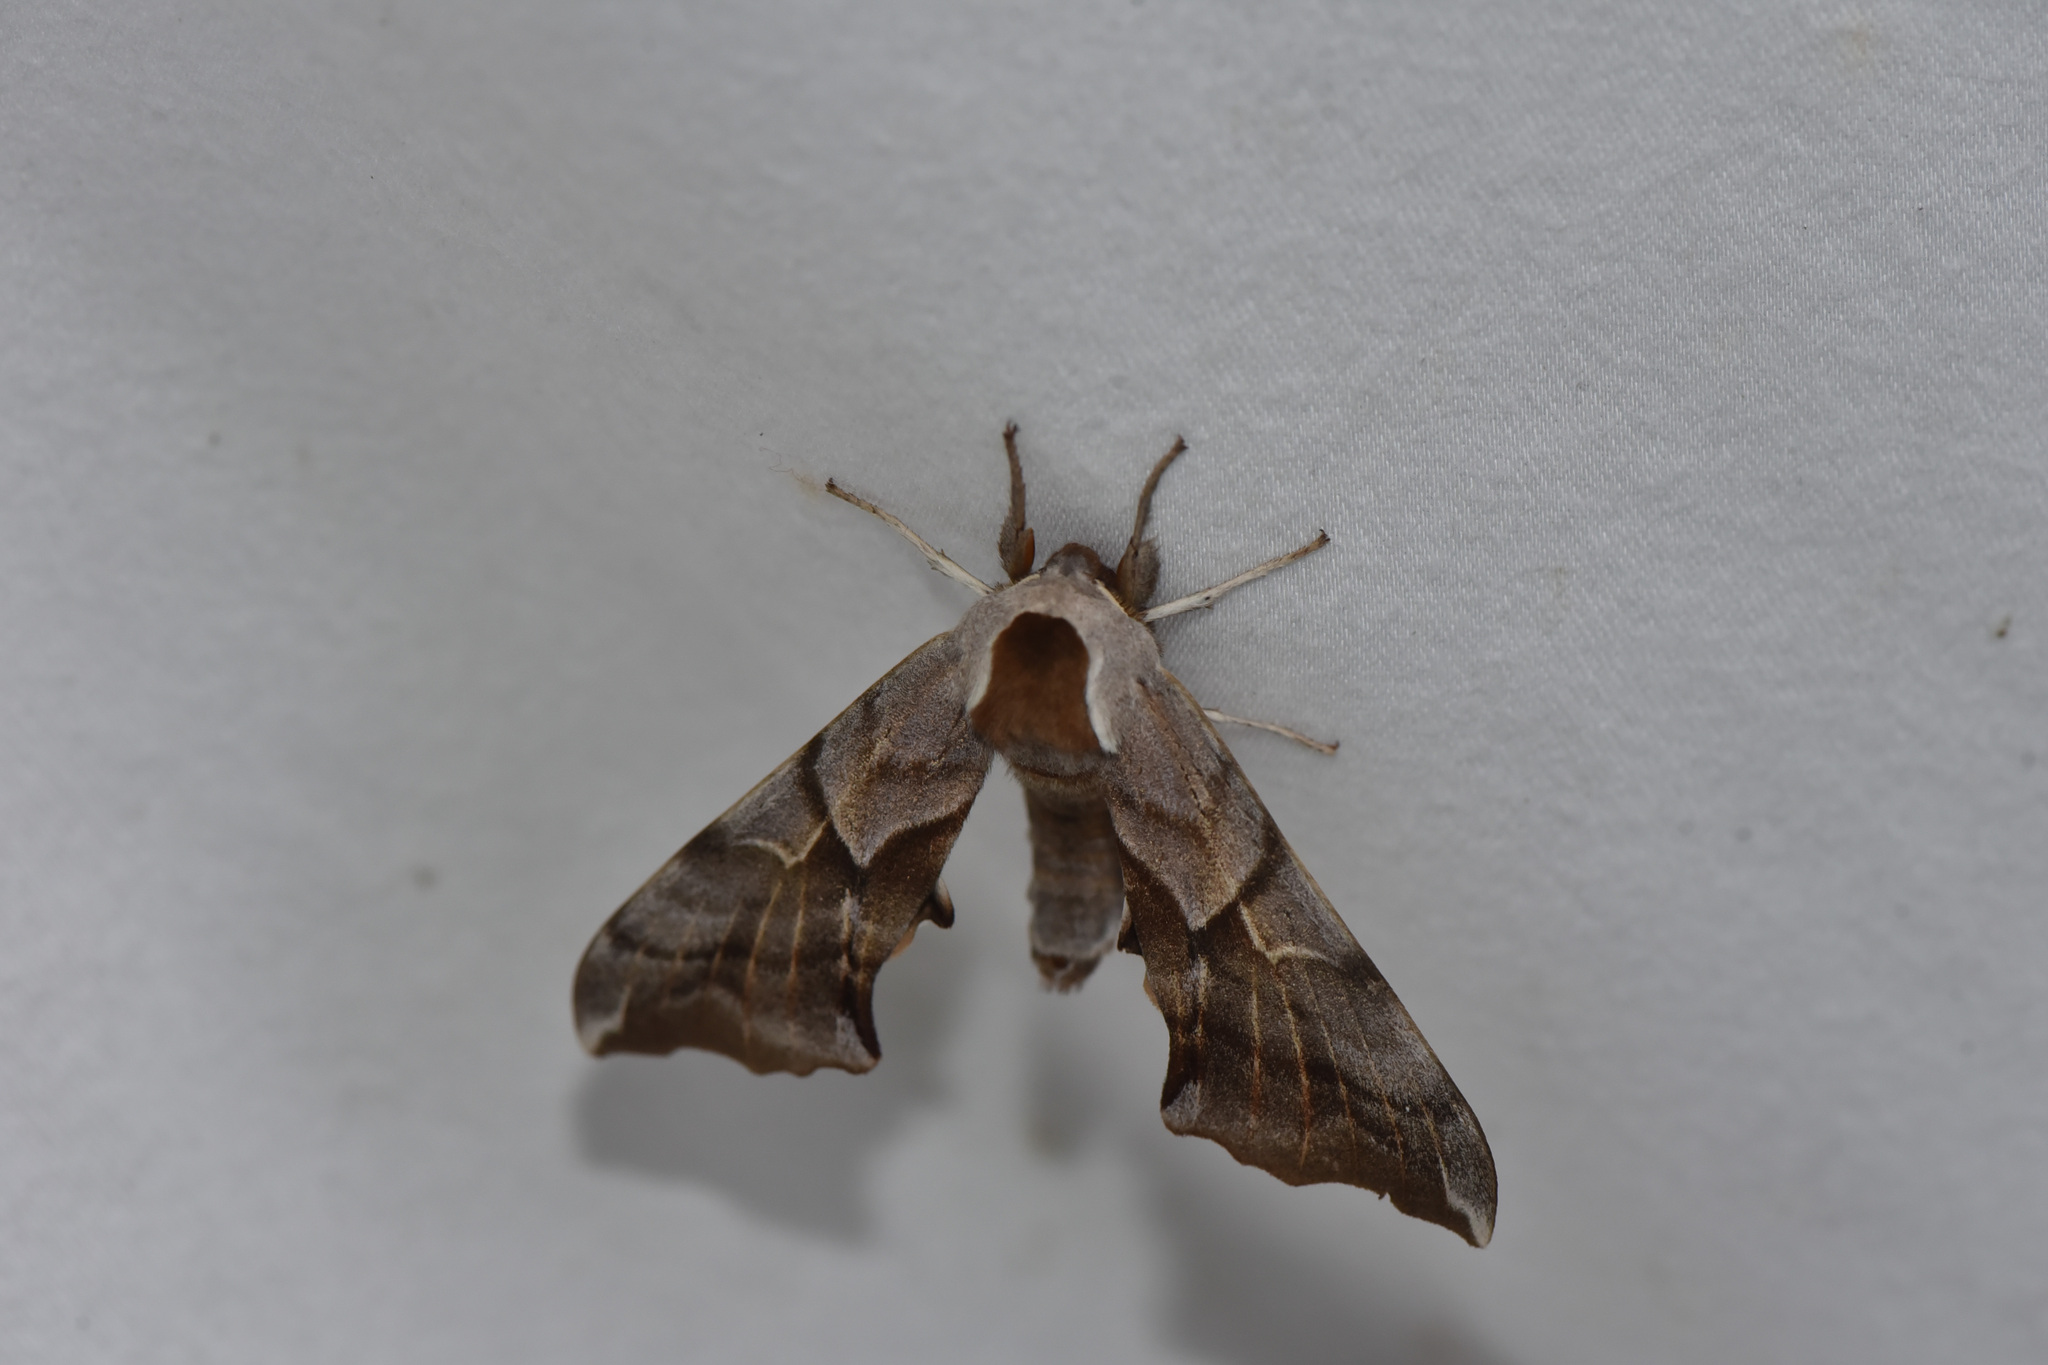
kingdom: Animalia
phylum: Arthropoda
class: Insecta
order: Lepidoptera
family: Sphingidae
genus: Smerinthus
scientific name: Smerinthus cerisyi
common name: Cerisy's sphinx moth
